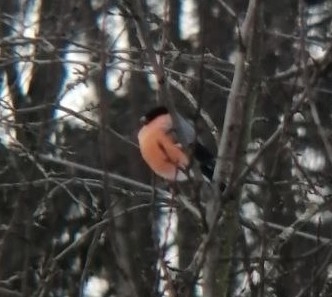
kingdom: Animalia
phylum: Chordata
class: Aves
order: Passeriformes
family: Fringillidae
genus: Pyrrhula
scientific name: Pyrrhula pyrrhula
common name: Eurasian bullfinch
